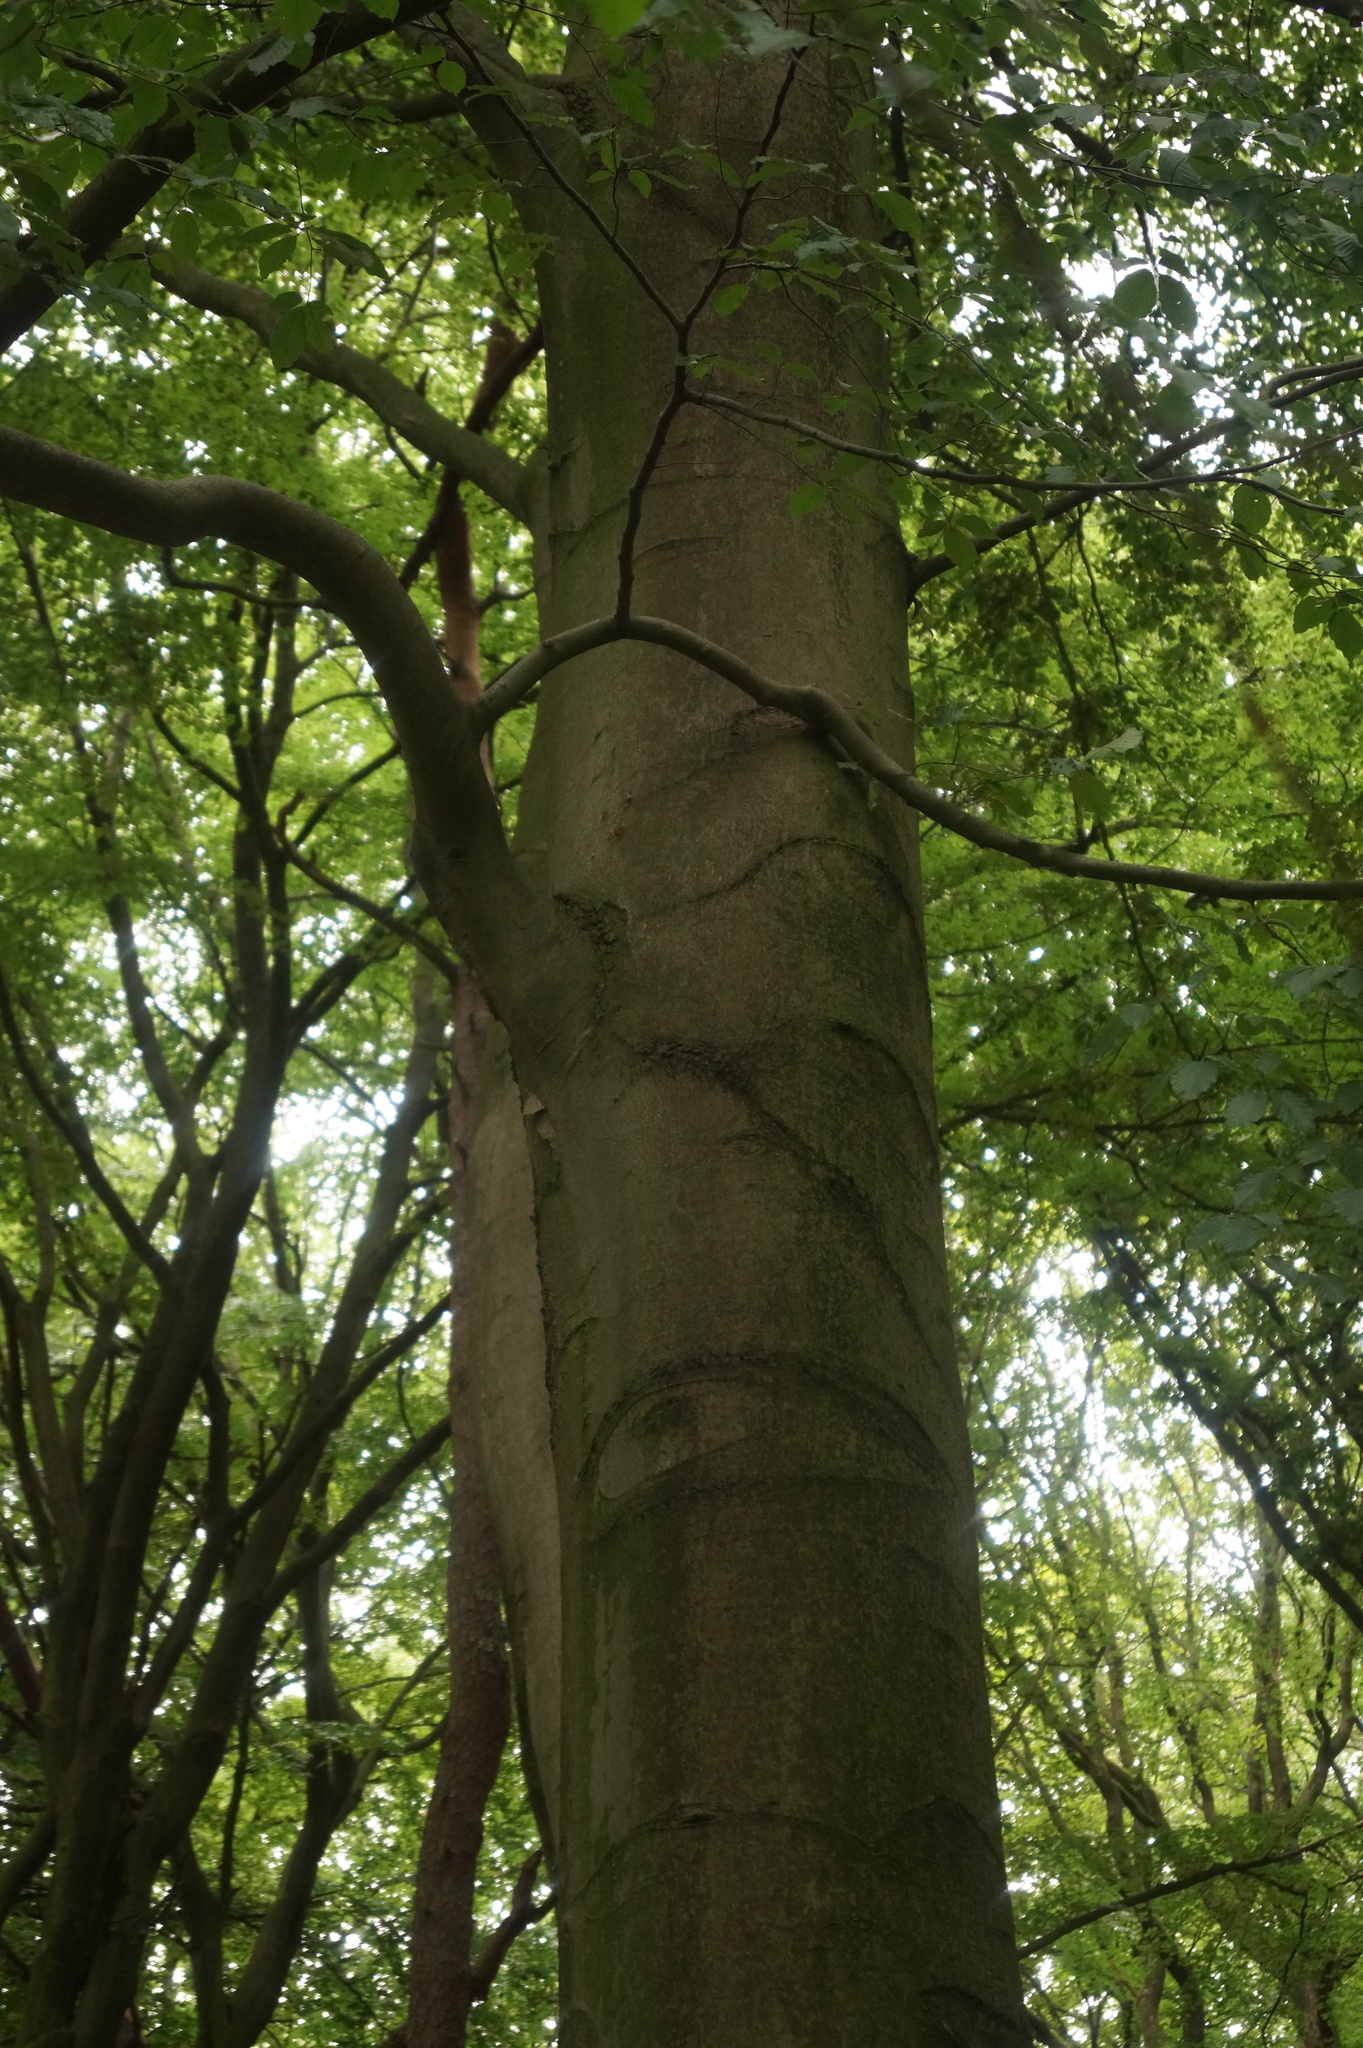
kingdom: Plantae
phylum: Tracheophyta
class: Magnoliopsida
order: Fagales
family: Fagaceae
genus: Fagus
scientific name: Fagus sylvatica
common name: Beech
